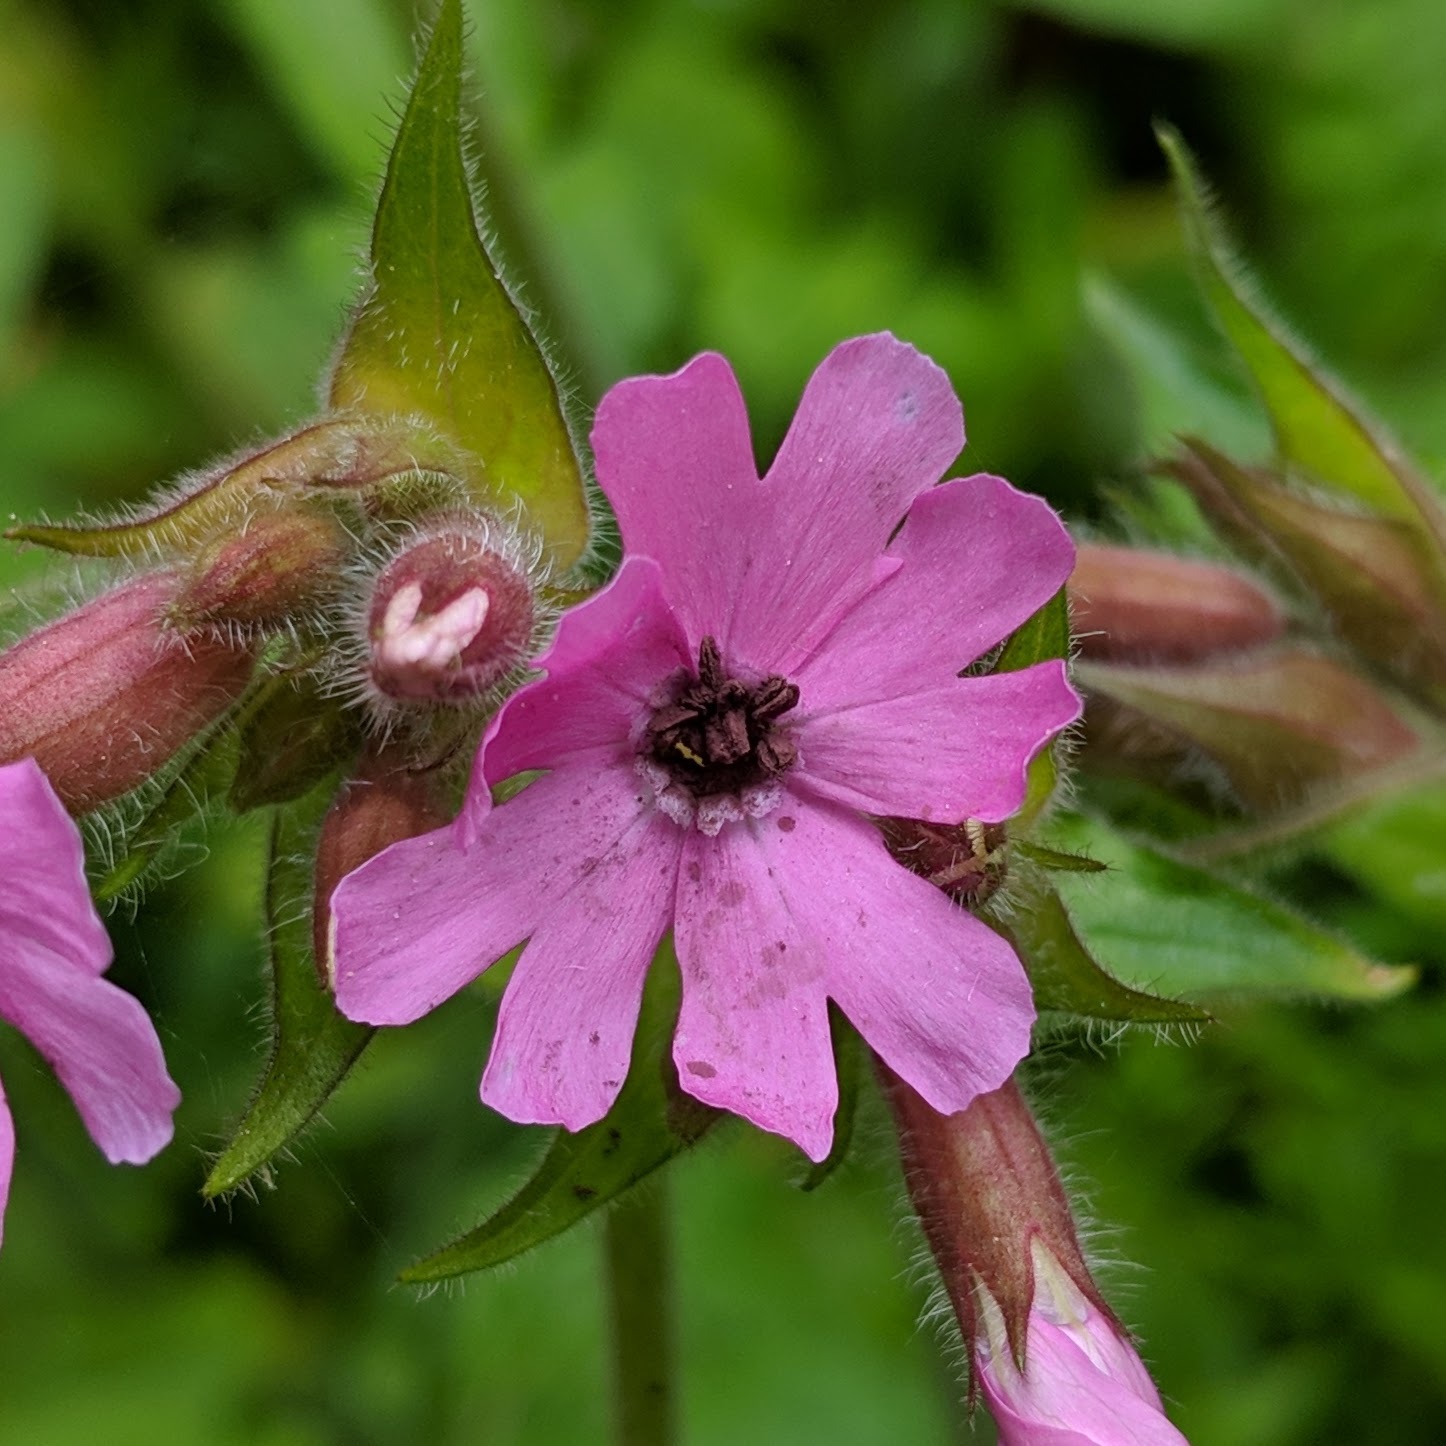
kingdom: Fungi
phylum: Basidiomycota
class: Microbotryomycetes
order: Microbotryales
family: Microbotryaceae
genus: Microbotryum
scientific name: Microbotryum silenes-dioicae
